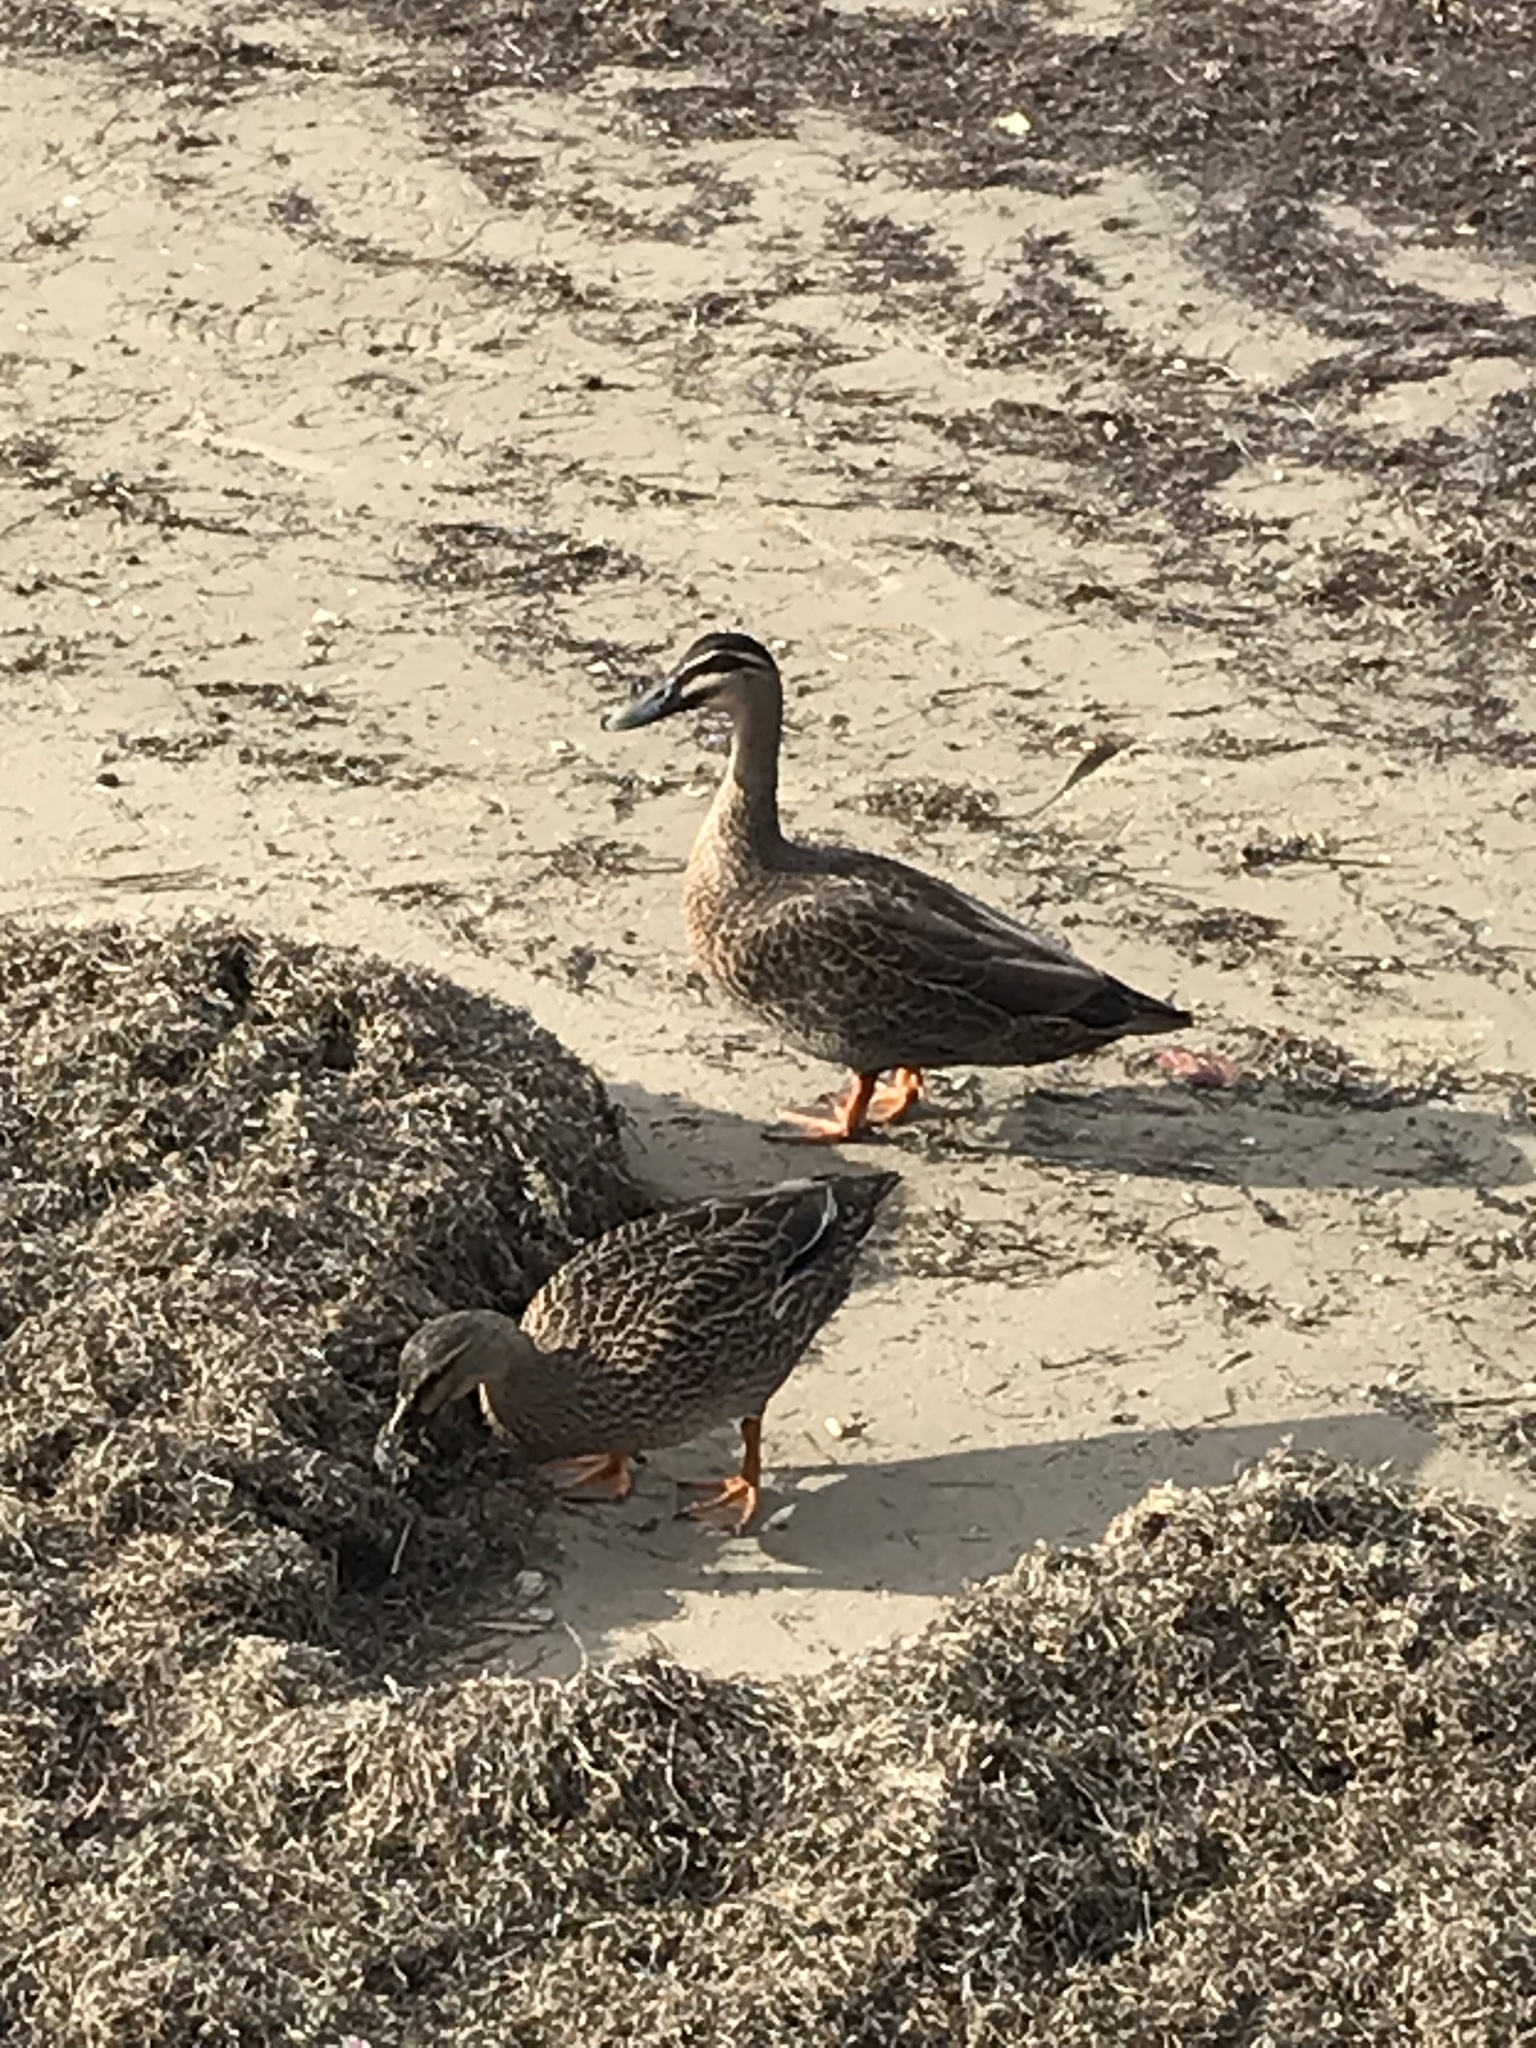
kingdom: Animalia
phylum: Chordata
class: Aves
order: Anseriformes
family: Anatidae
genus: Anas
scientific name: Anas
